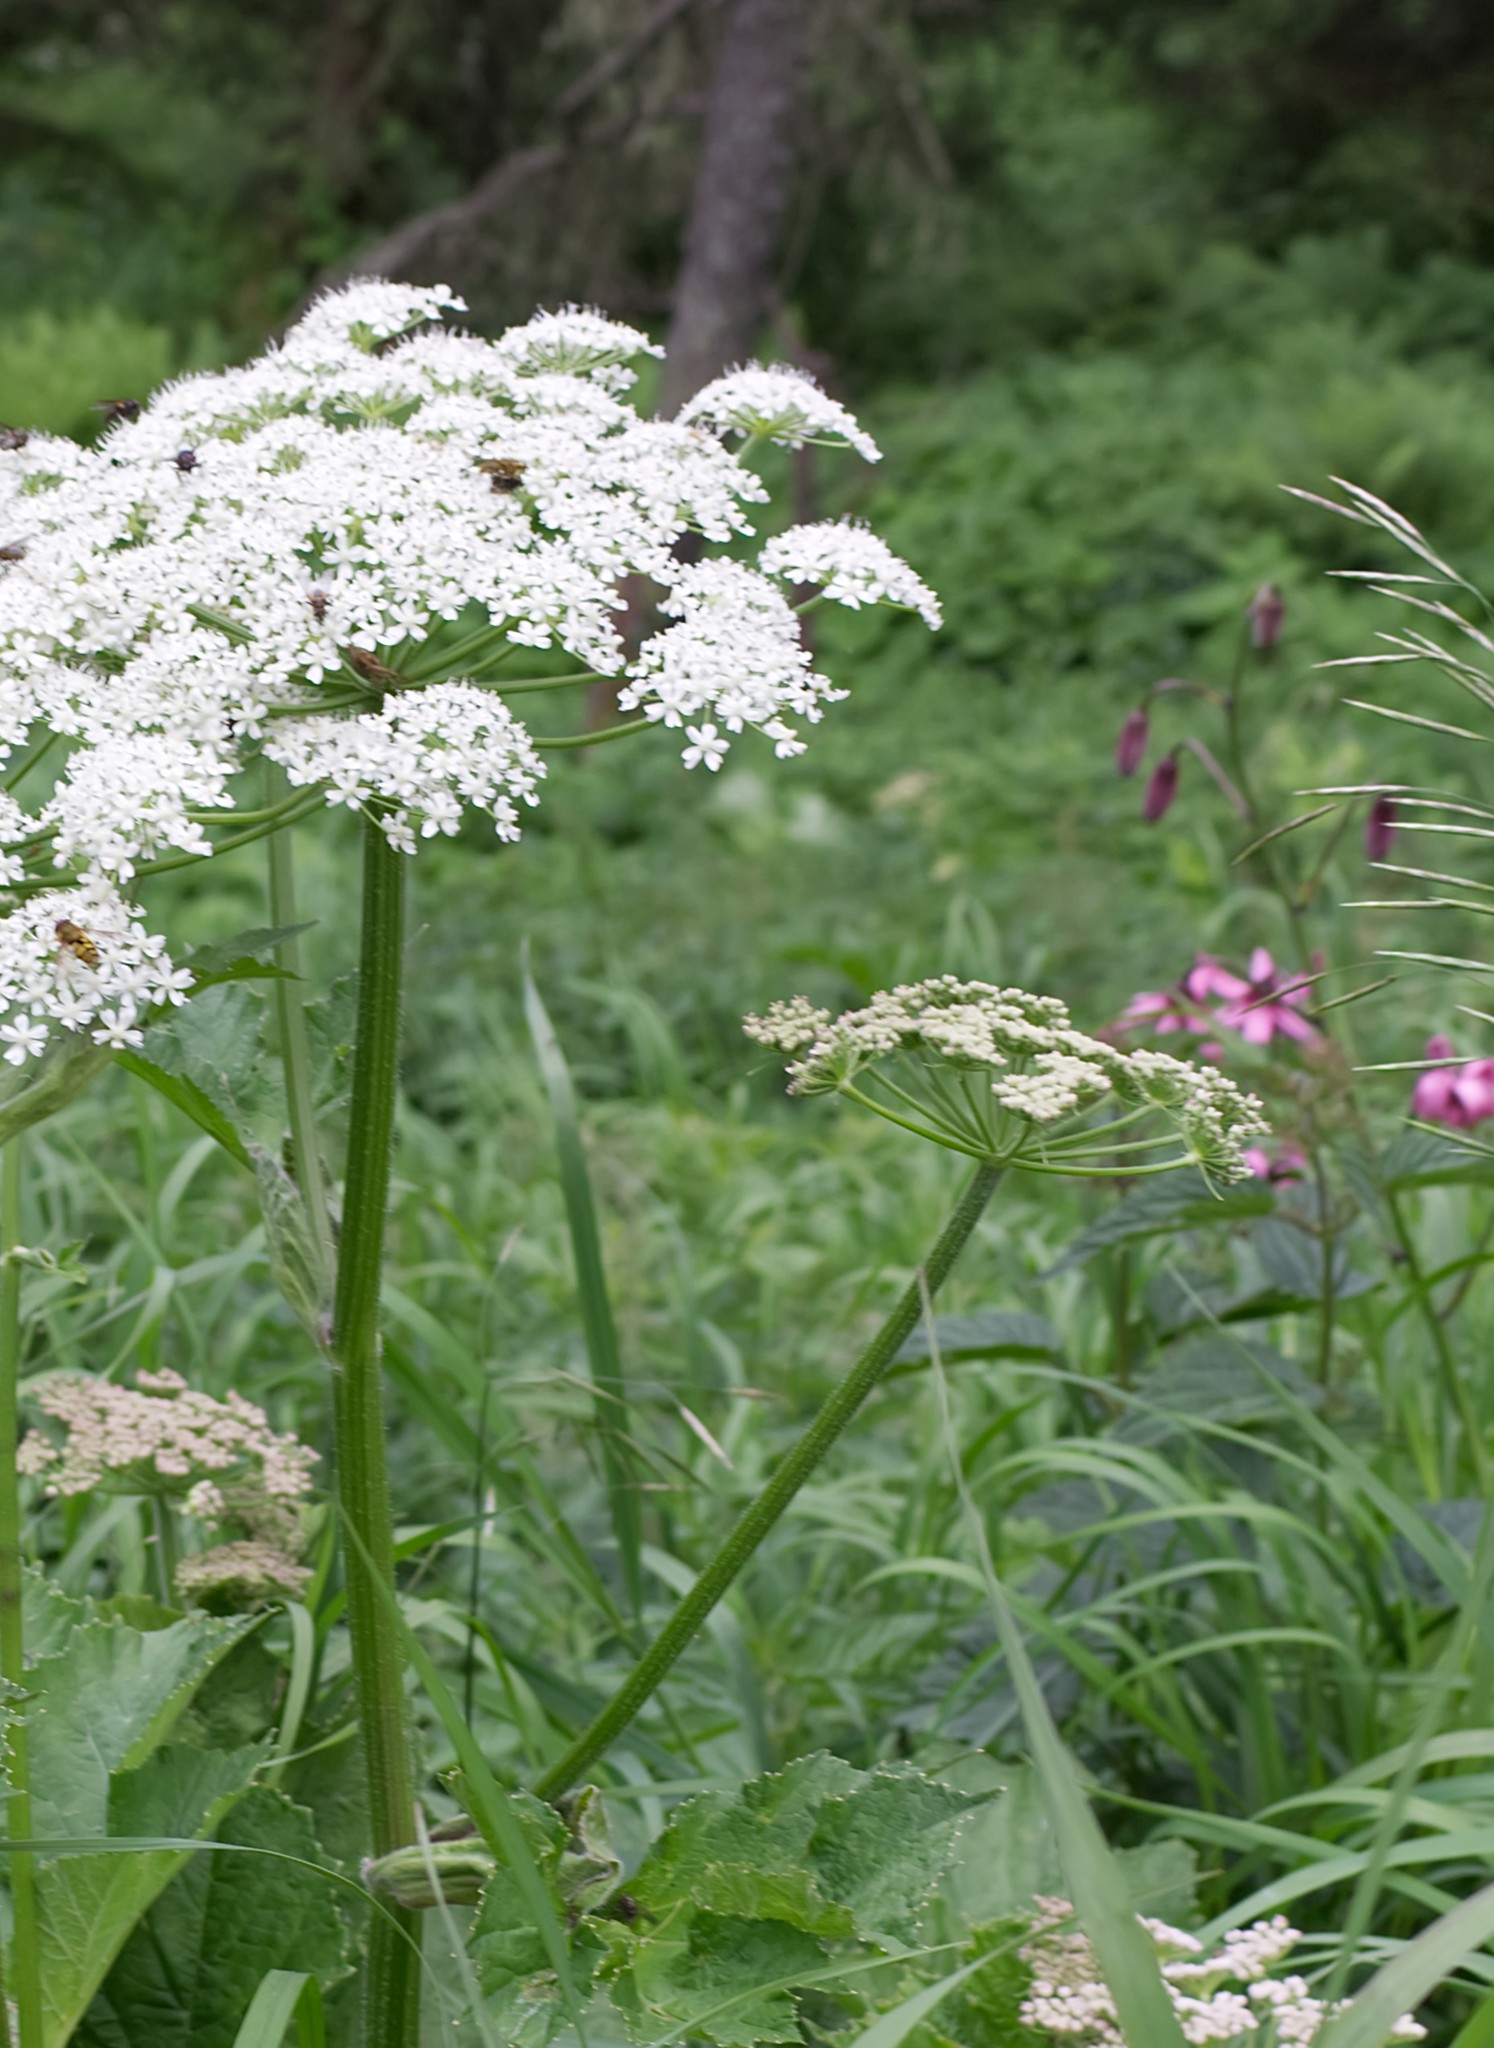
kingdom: Plantae
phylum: Tracheophyta
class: Liliopsida
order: Liliales
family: Liliaceae
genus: Lilium
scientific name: Lilium martagon
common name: Martagon lily
